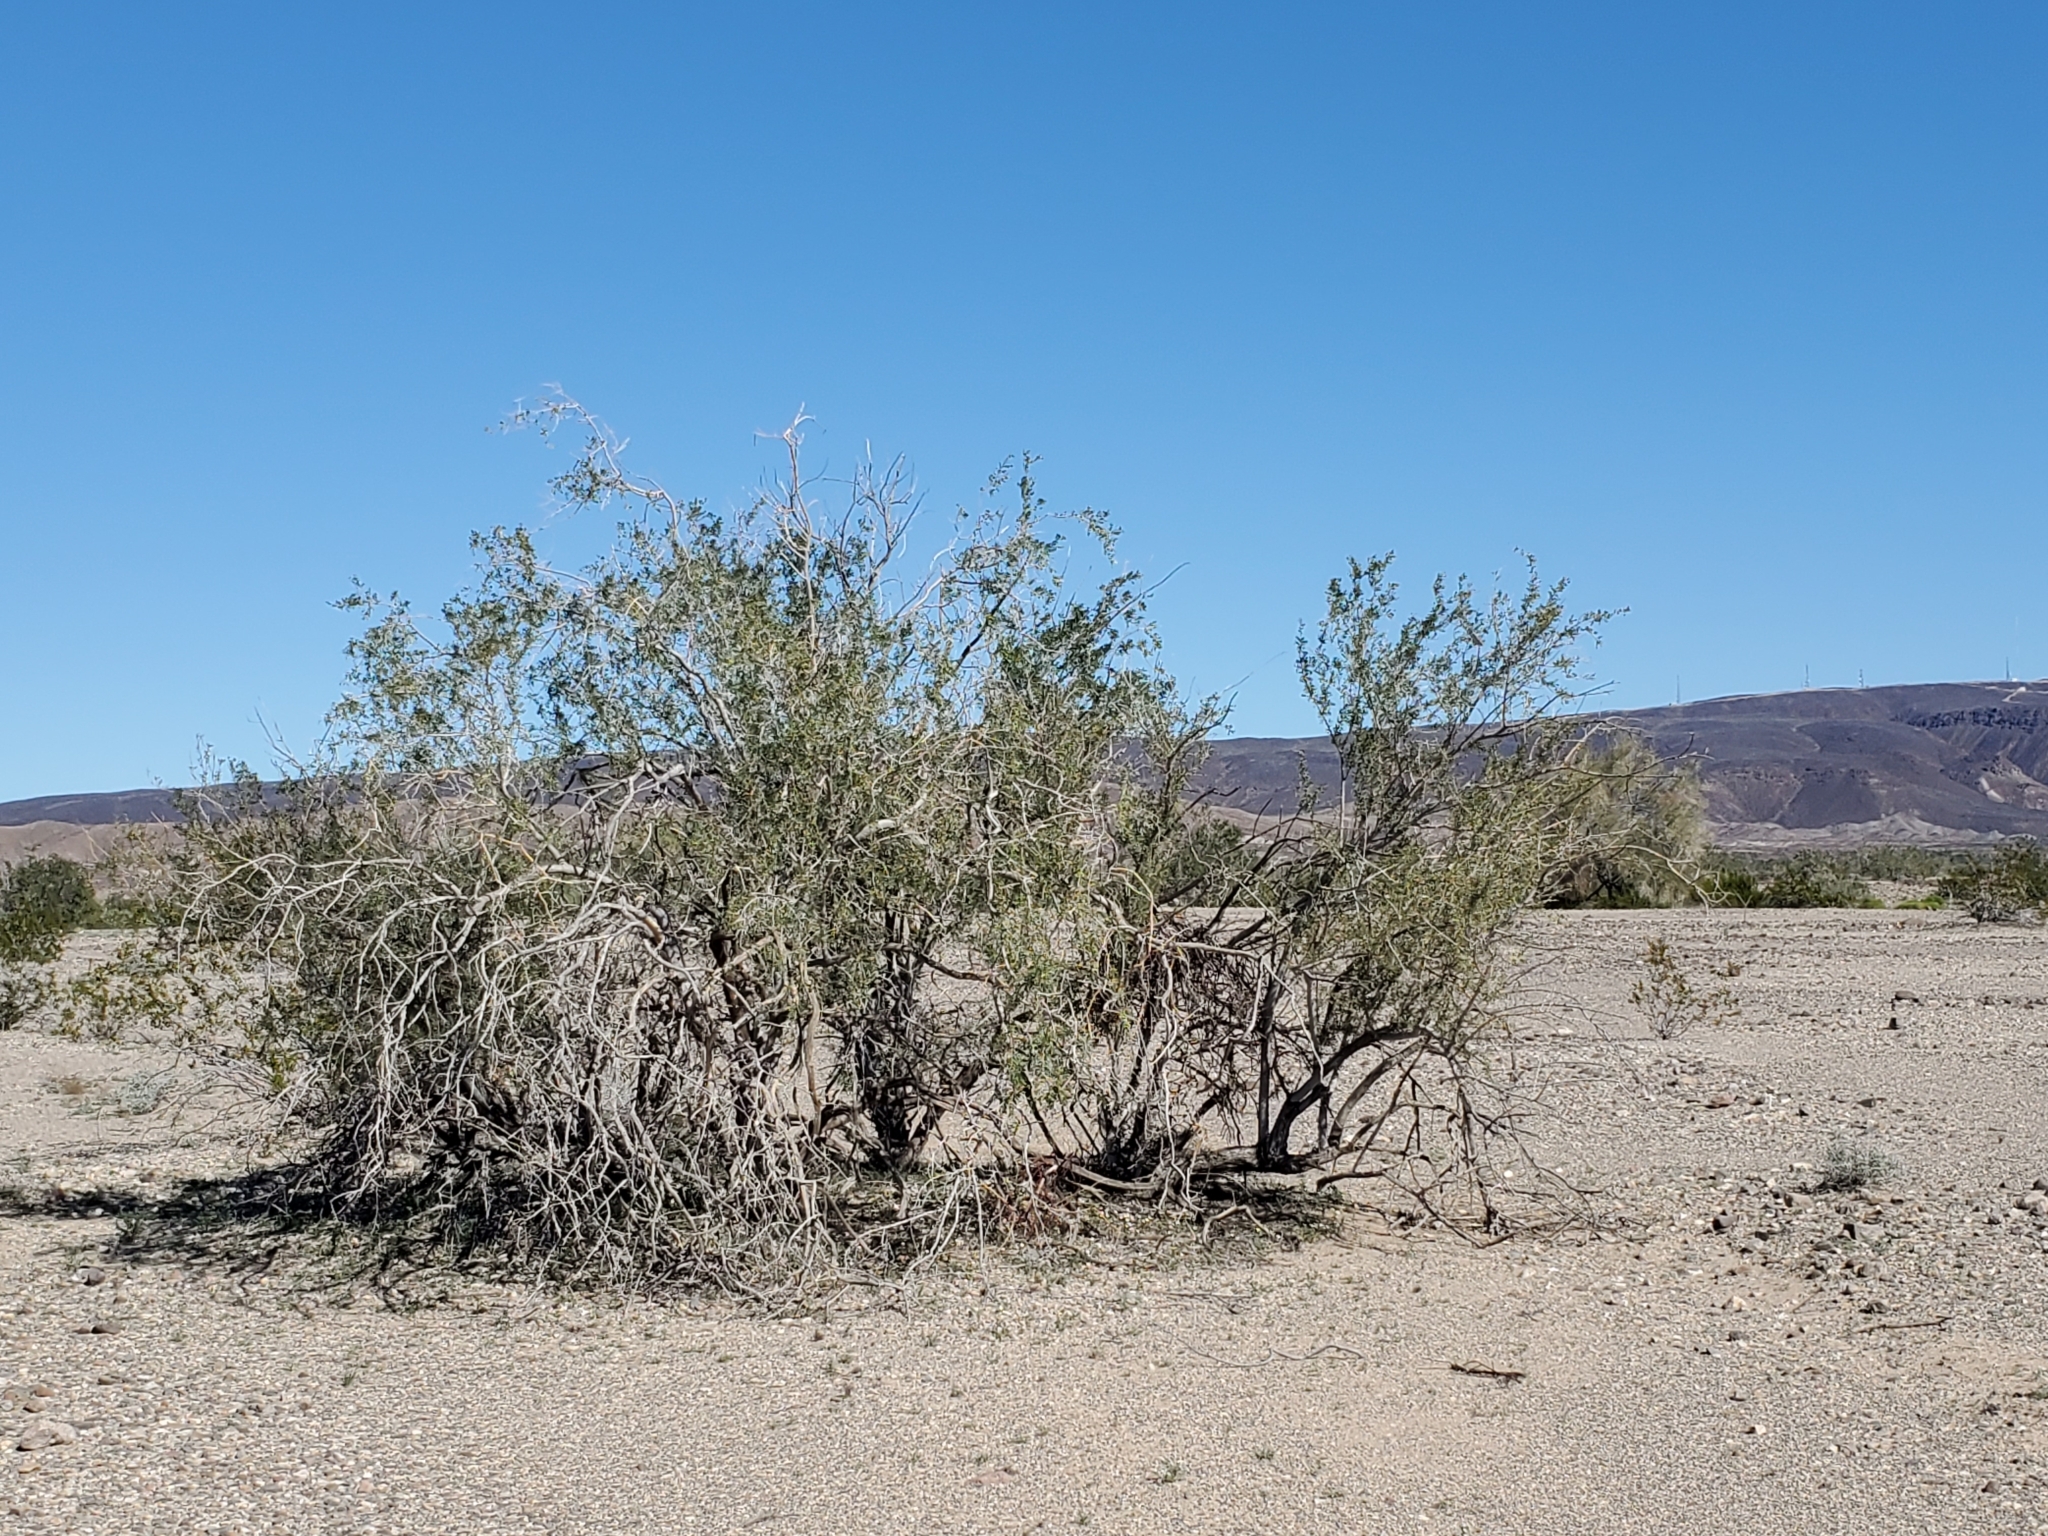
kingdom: Plantae
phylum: Tracheophyta
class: Magnoliopsida
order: Fabales
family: Fabaceae
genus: Olneya
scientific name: Olneya tesota
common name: Desert ironwood
